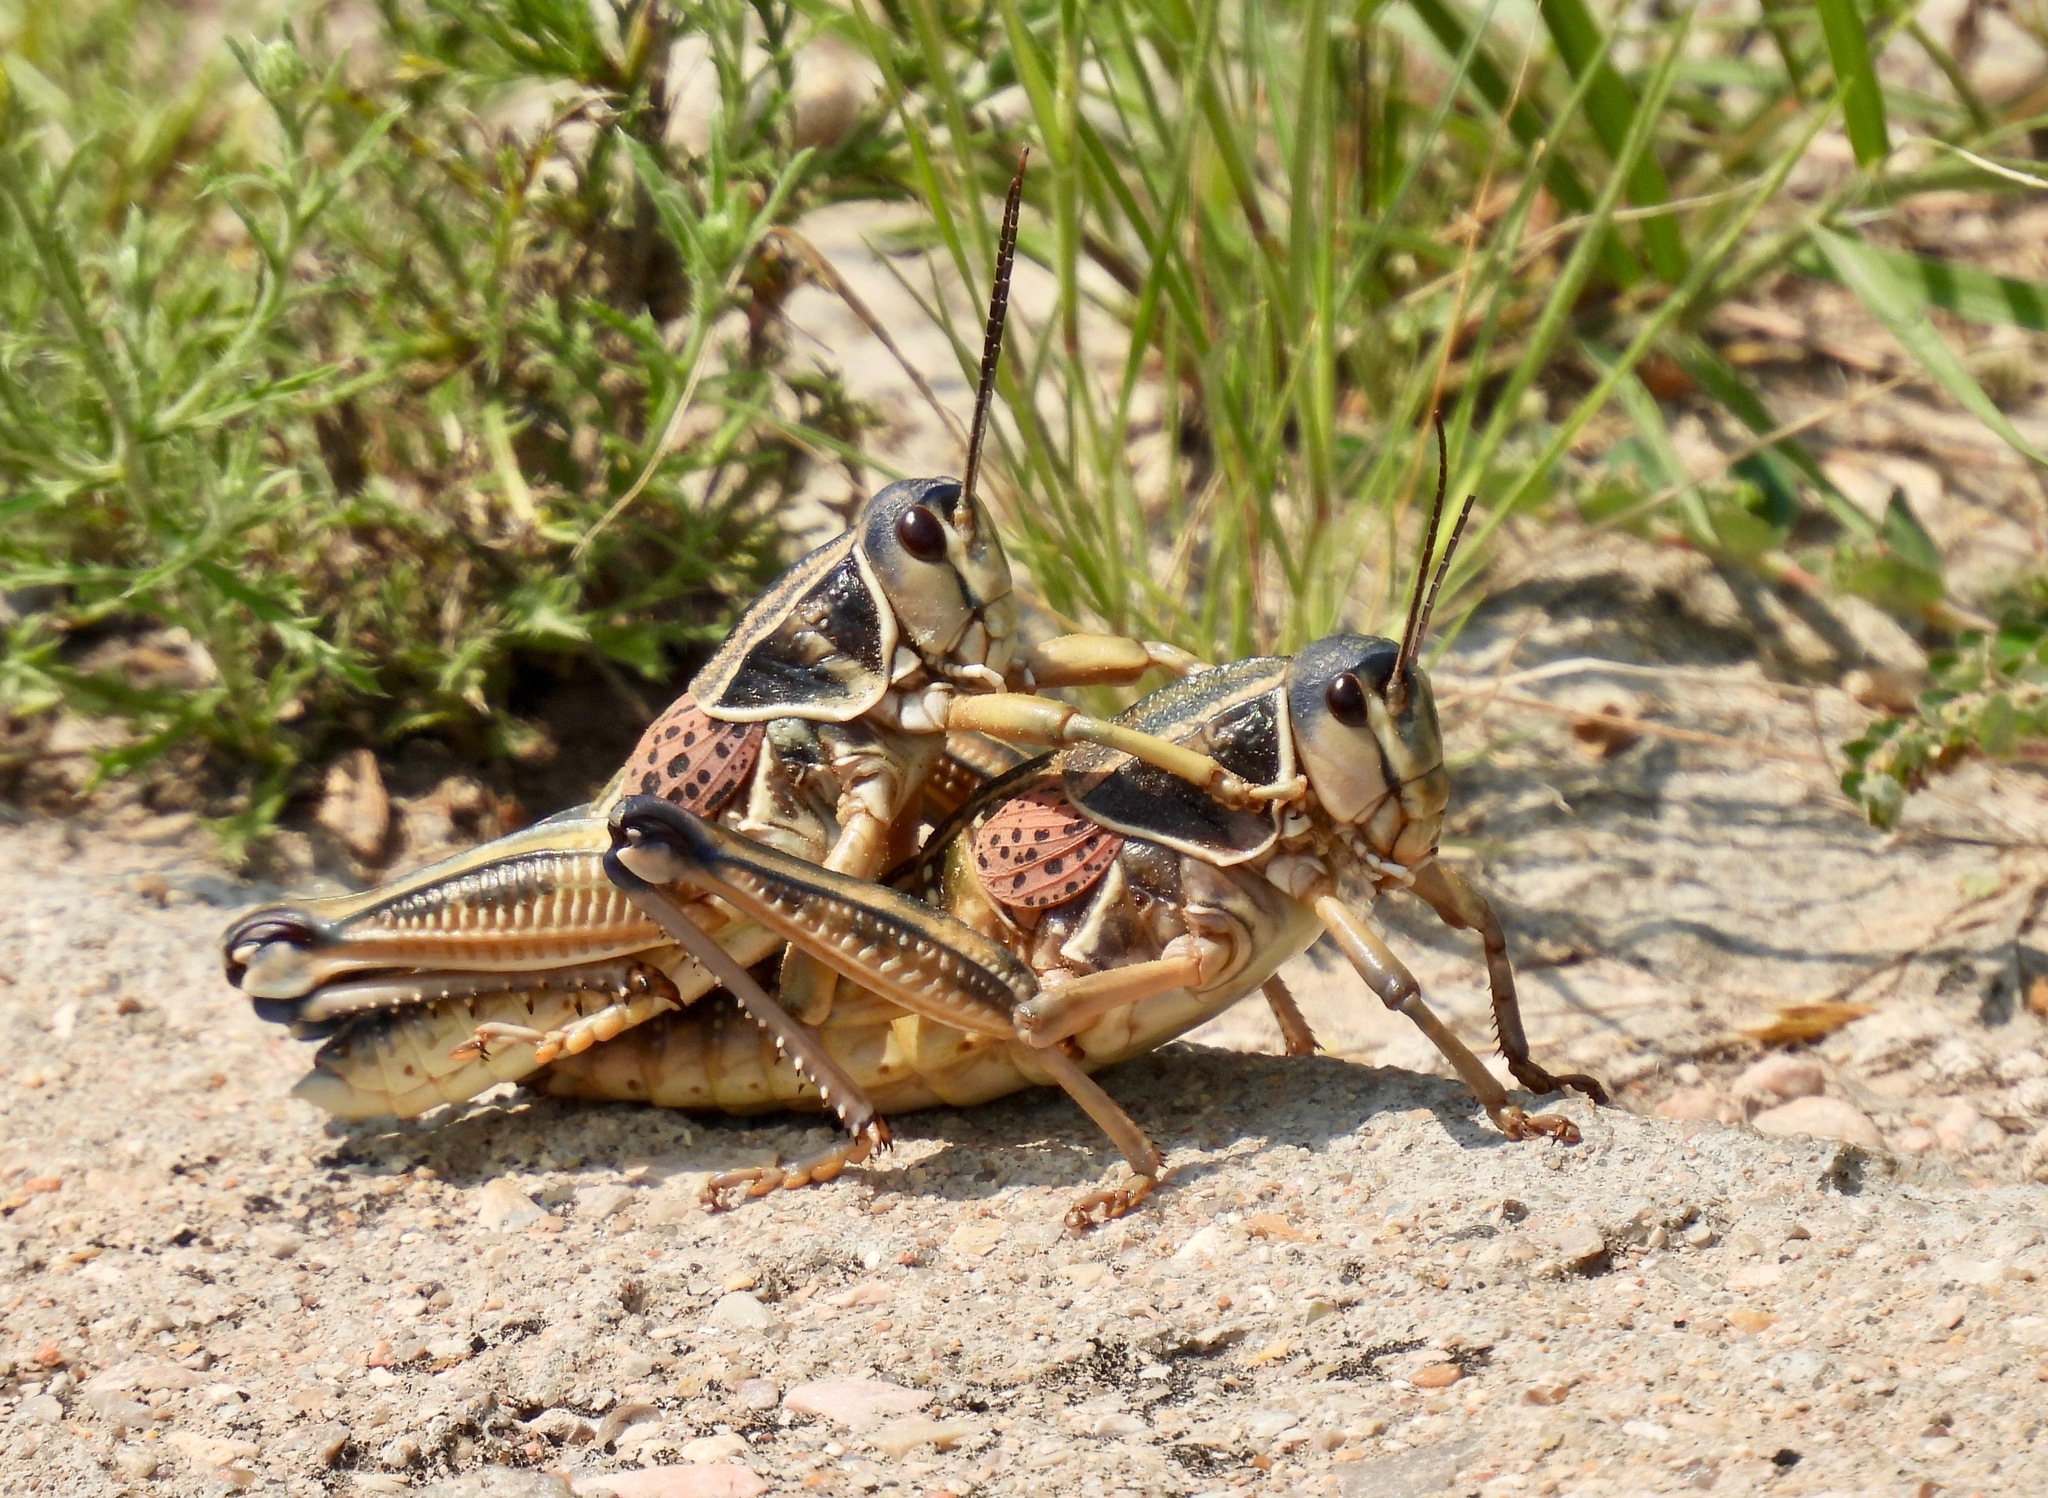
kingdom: Animalia
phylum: Arthropoda
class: Insecta
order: Orthoptera
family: Romaleidae
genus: Brachystola
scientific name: Brachystola magna
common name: Plains lubber grasshopper
